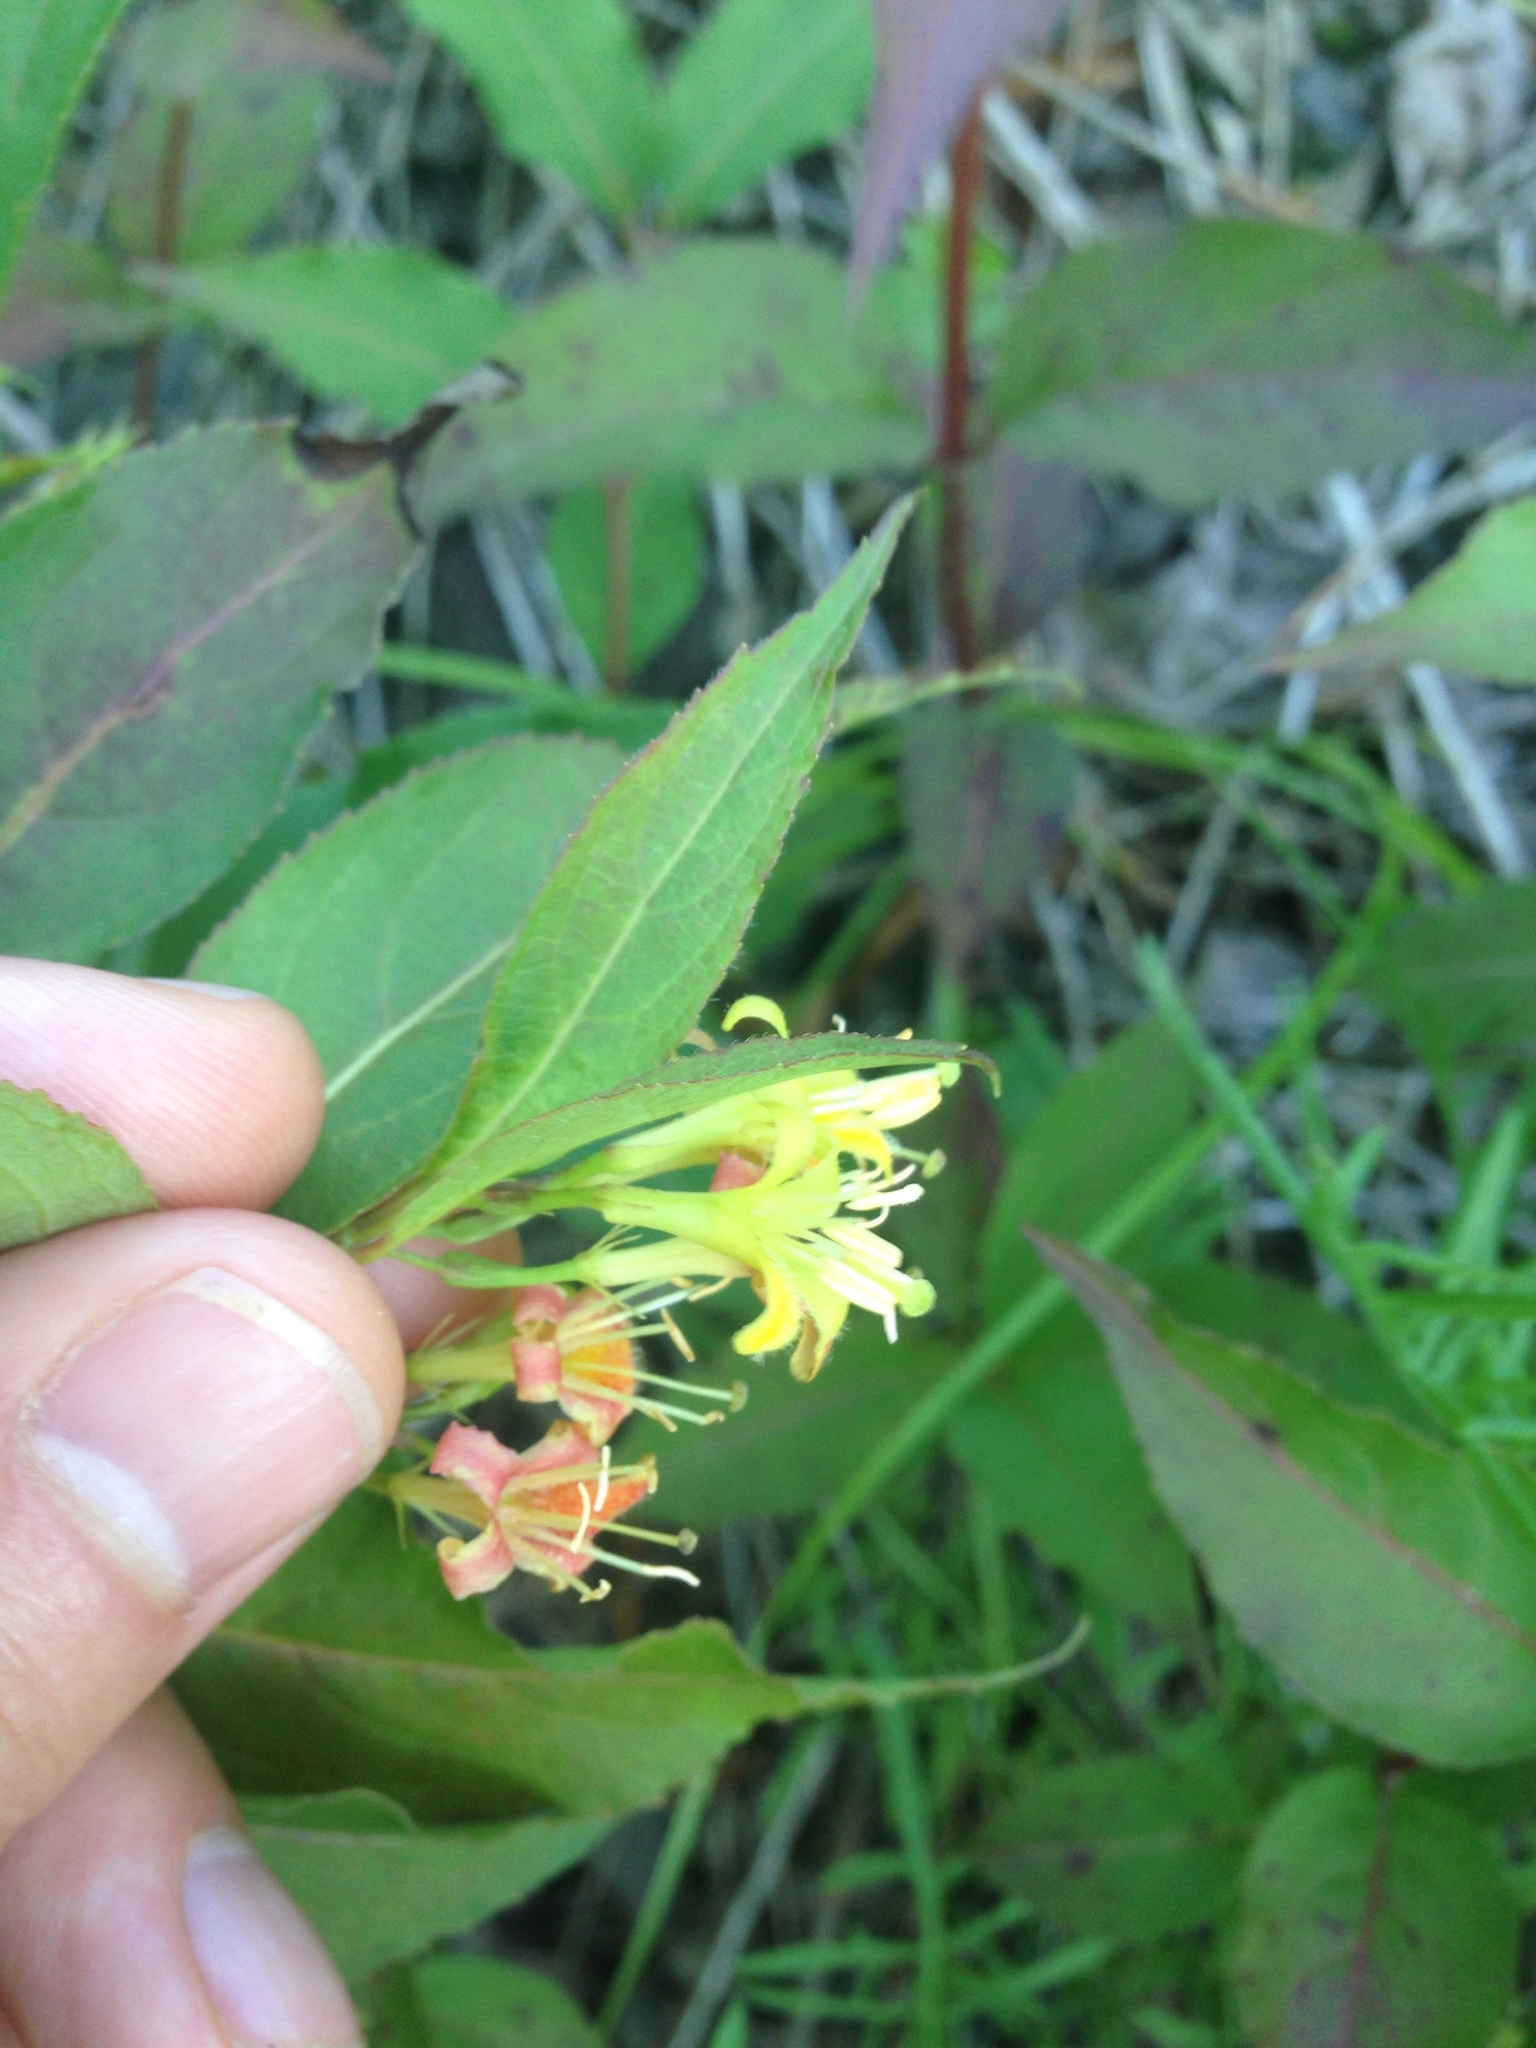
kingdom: Plantae
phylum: Tracheophyta
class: Magnoliopsida
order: Dipsacales
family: Caprifoliaceae
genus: Diervilla
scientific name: Diervilla lonicera
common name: Bush-honeysuckle
